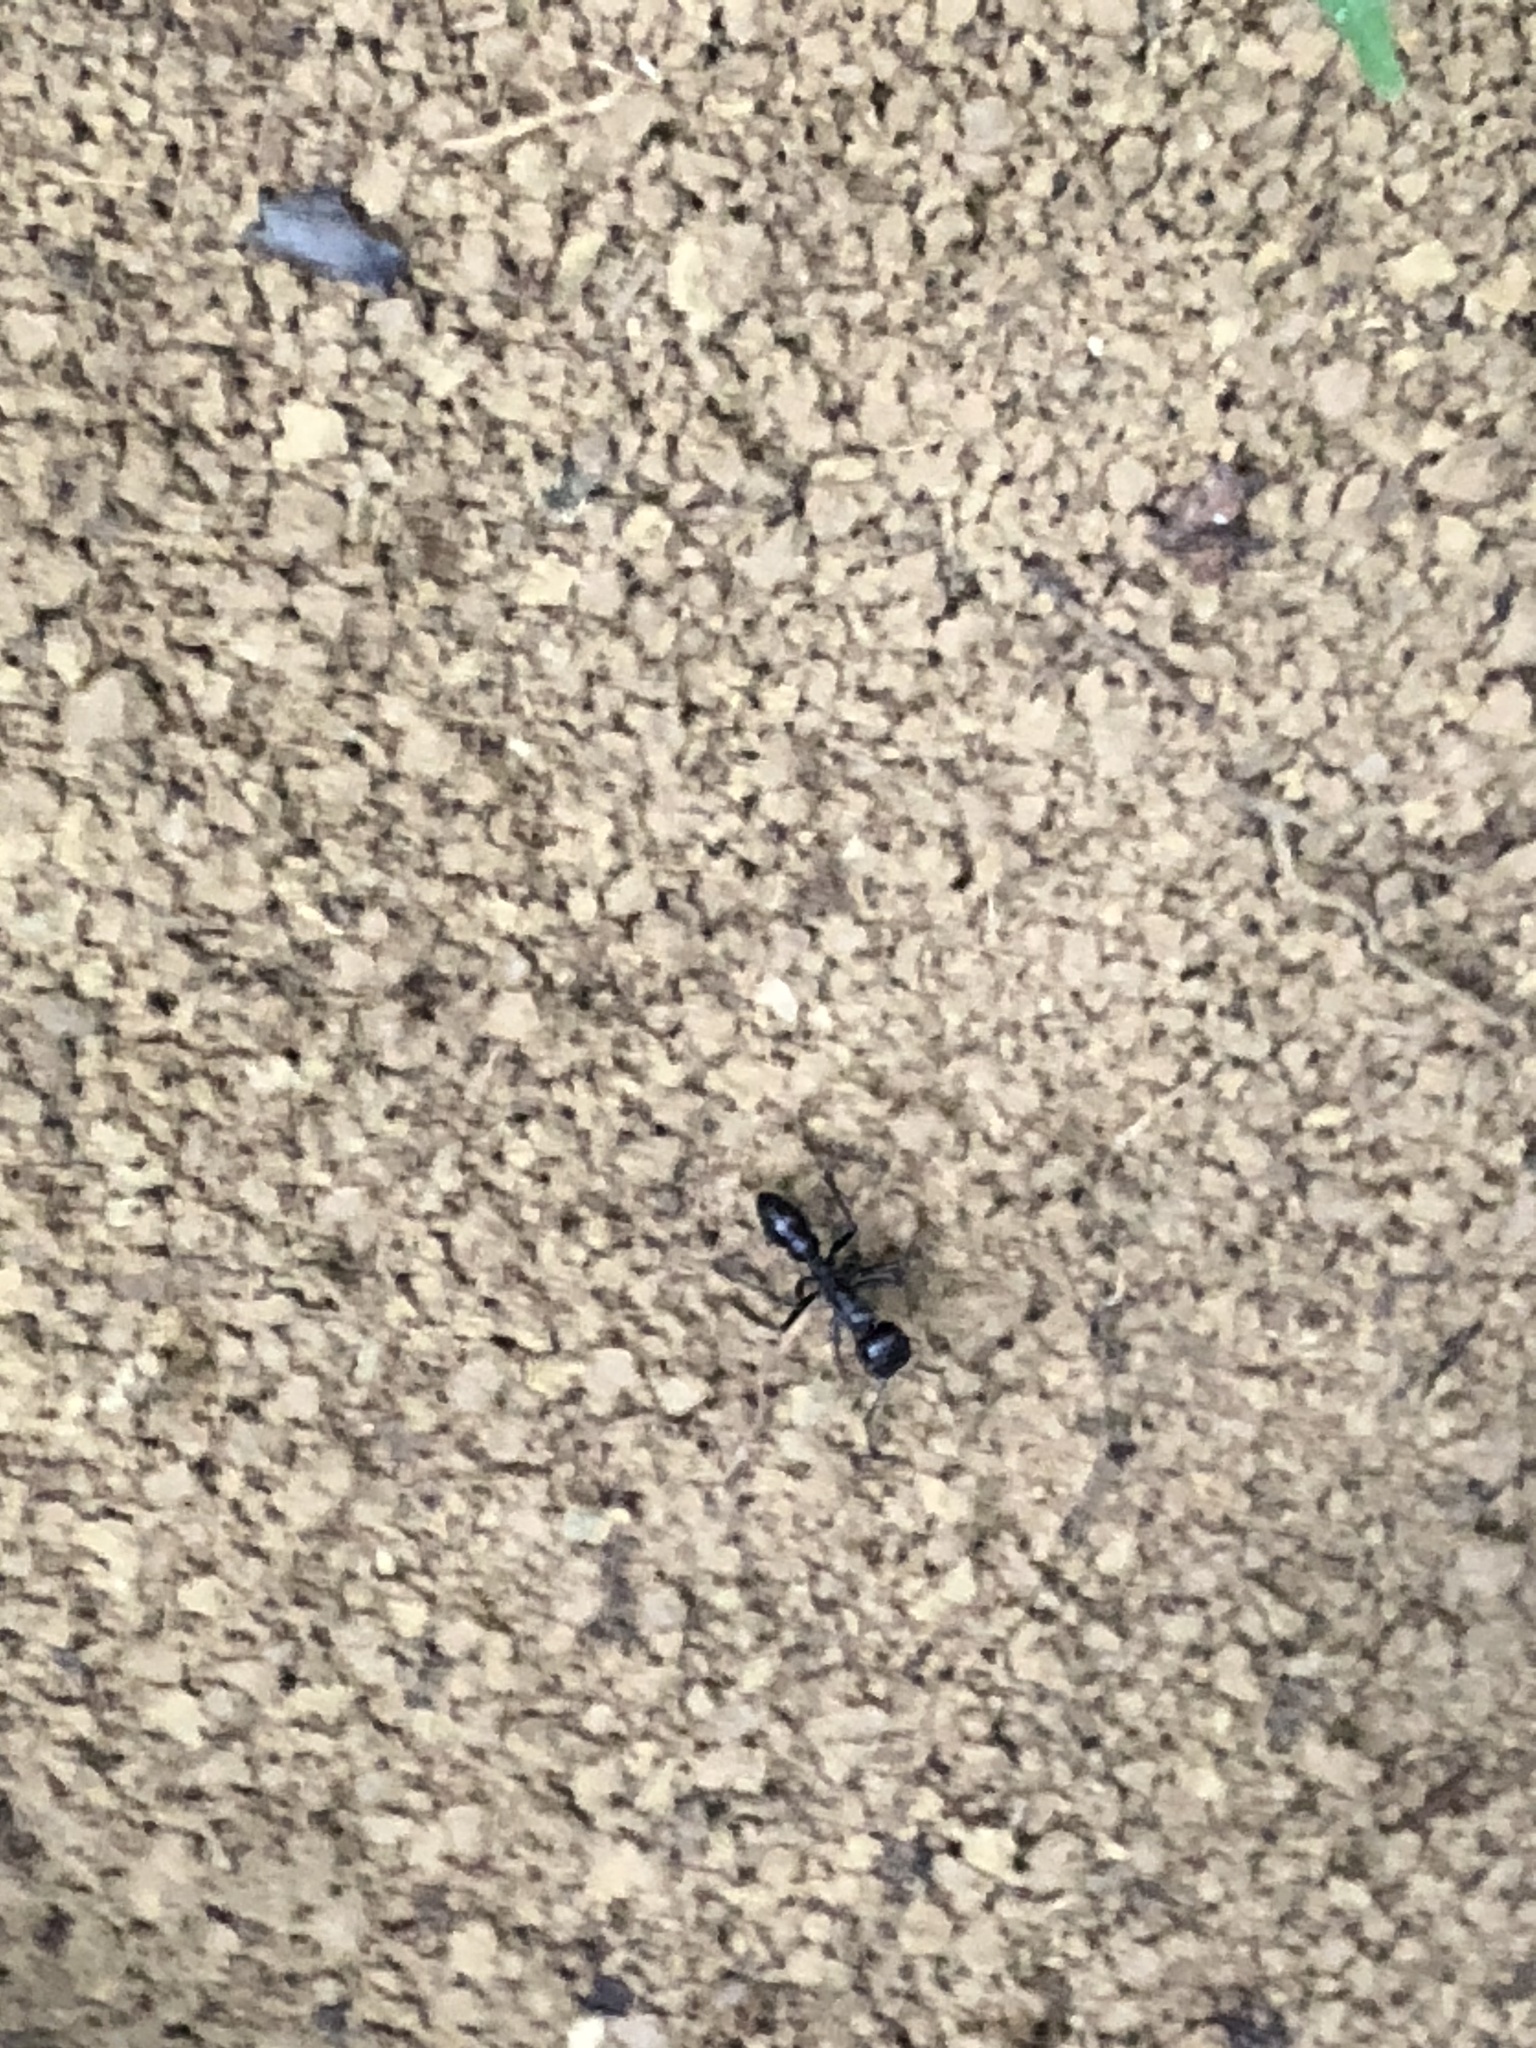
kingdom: Animalia
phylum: Arthropoda
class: Insecta
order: Hymenoptera
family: Formicidae
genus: Paraponera
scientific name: Paraponera clavata
